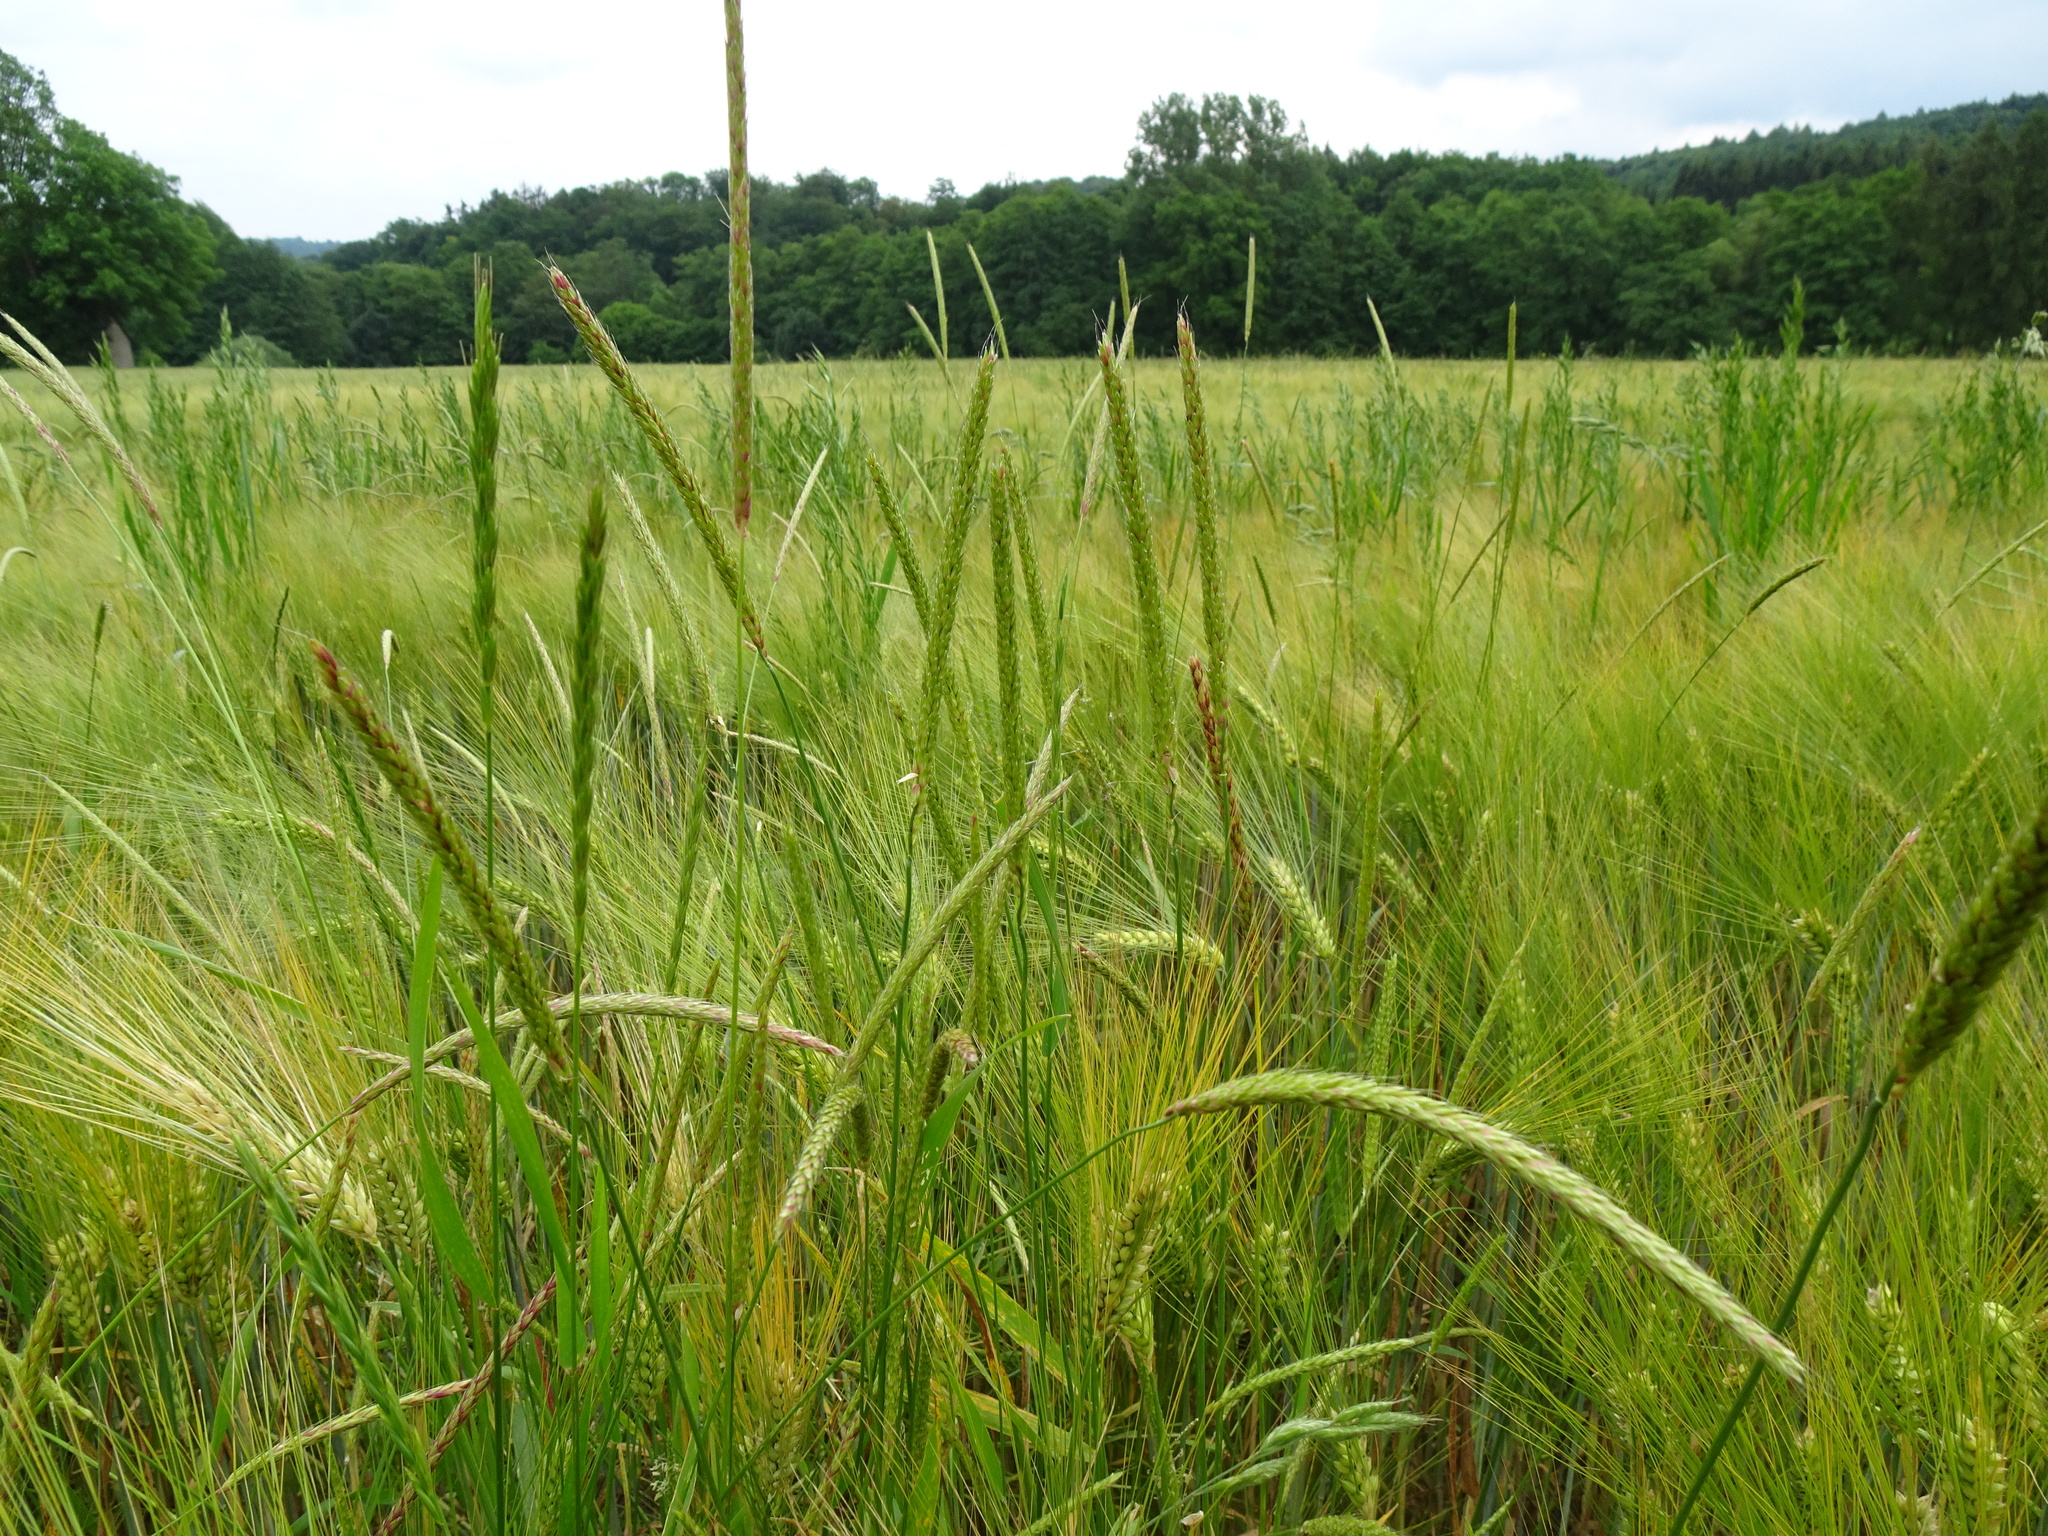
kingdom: Plantae
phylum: Tracheophyta
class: Liliopsida
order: Poales
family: Poaceae
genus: Alopecurus
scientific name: Alopecurus myosuroides
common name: Black-grass
